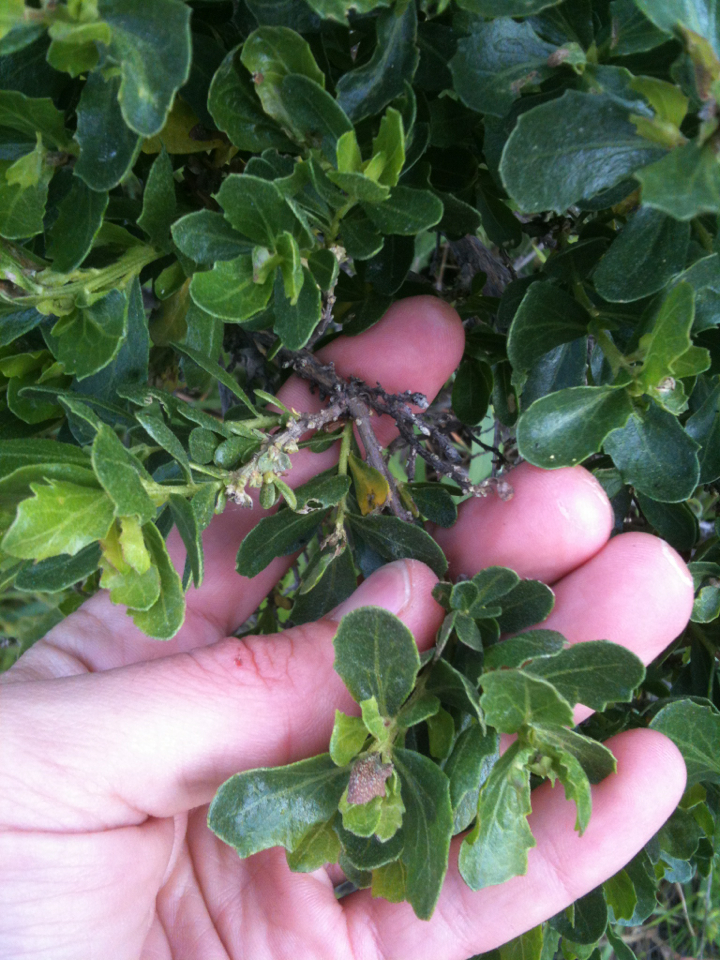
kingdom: Plantae
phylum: Tracheophyta
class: Magnoliopsida
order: Asterales
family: Asteraceae
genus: Baccharis
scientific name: Baccharis pilularis
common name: Coyotebrush
